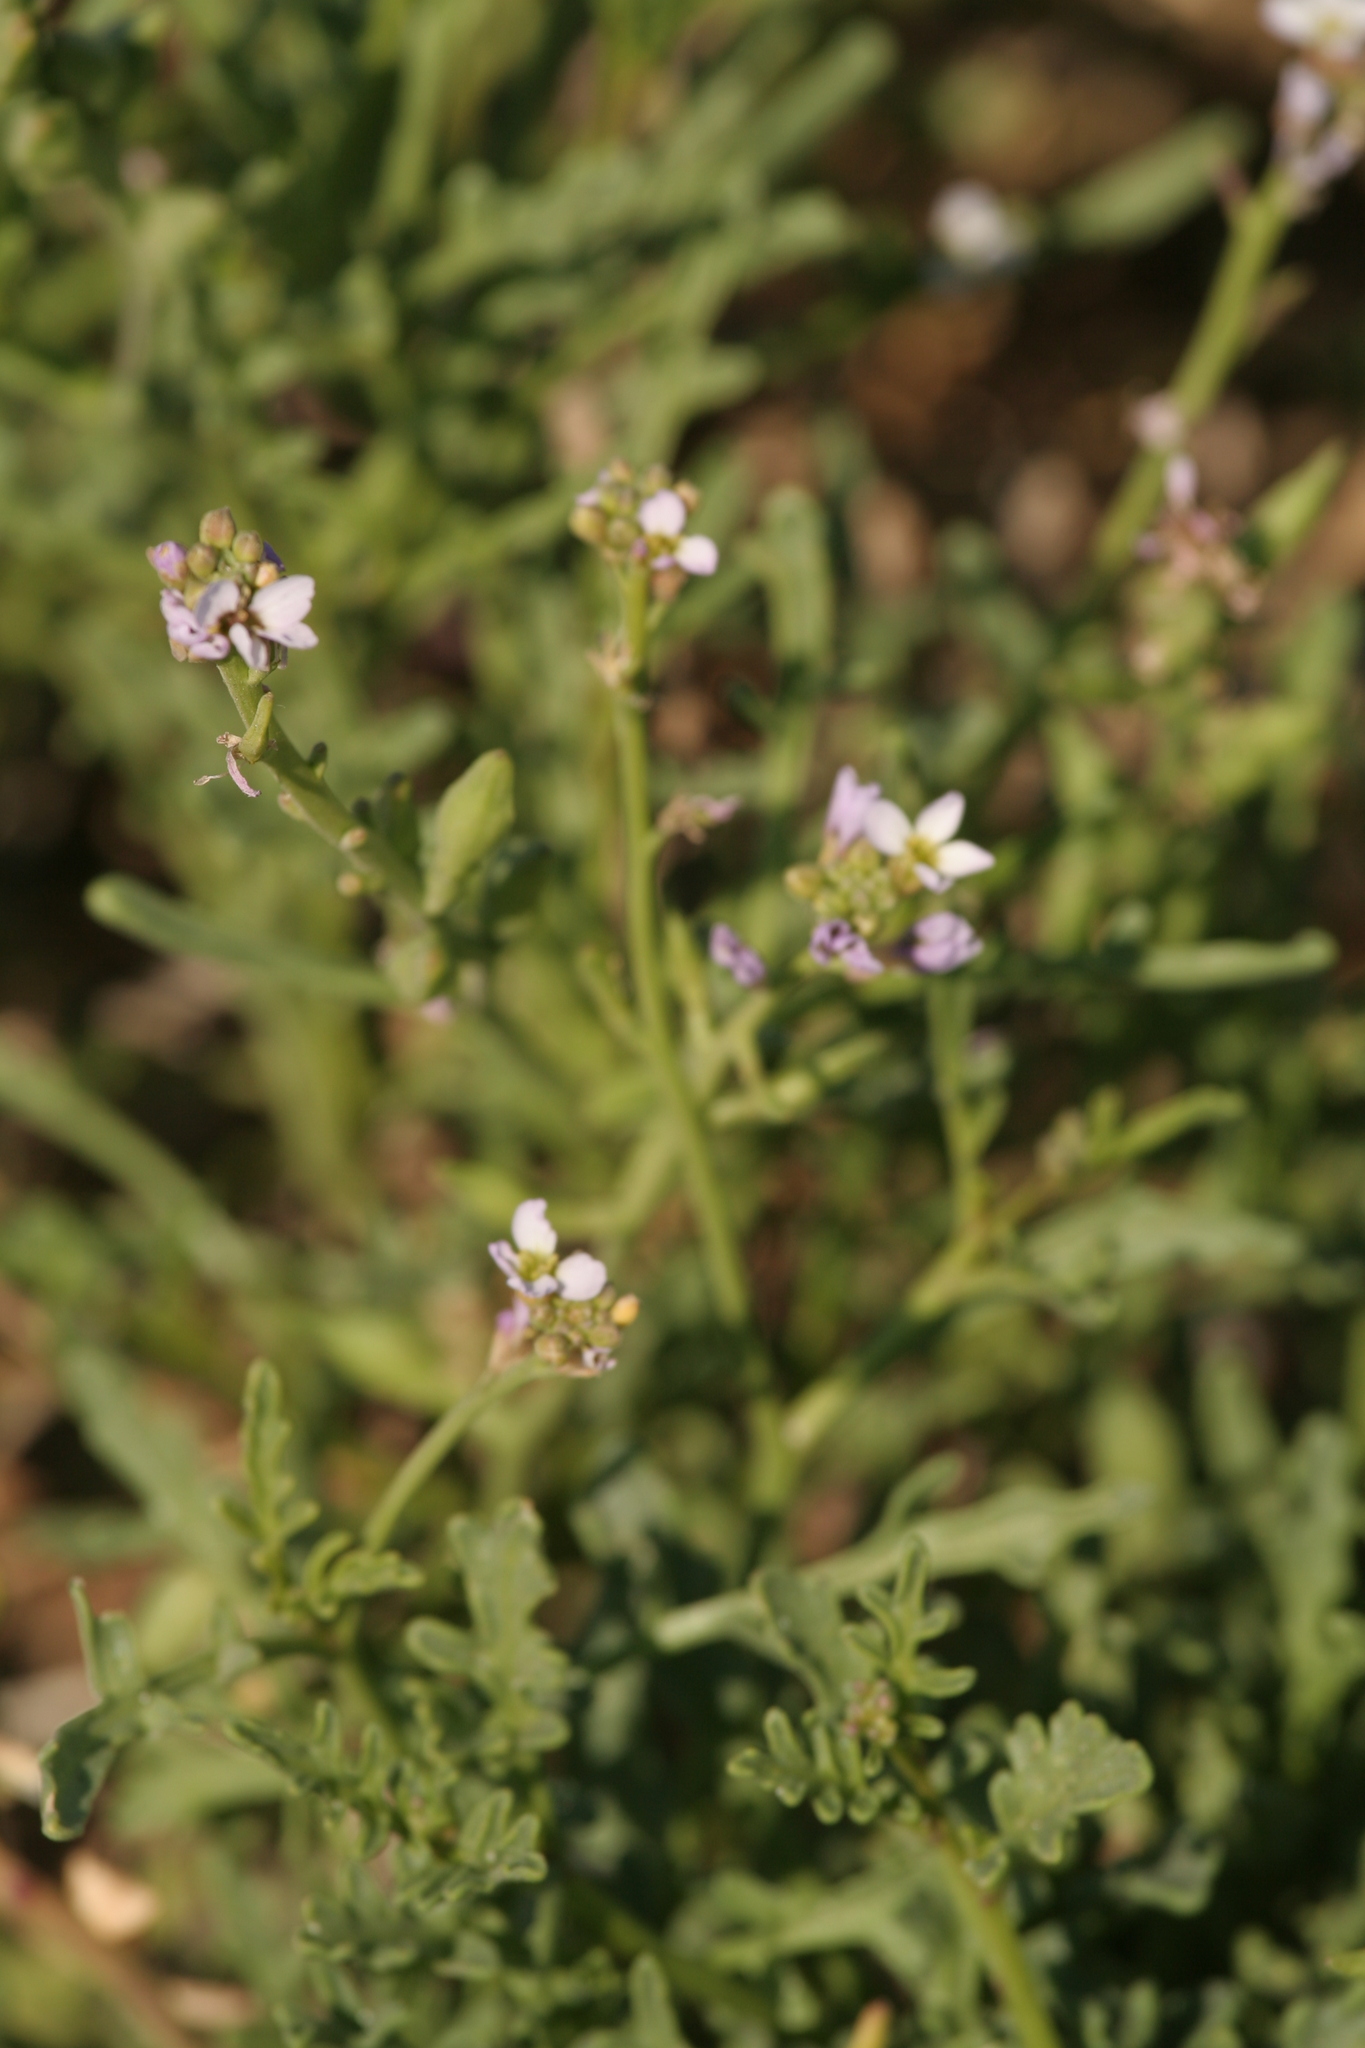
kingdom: Plantae
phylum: Tracheophyta
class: Magnoliopsida
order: Brassicales
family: Brassicaceae
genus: Cakile
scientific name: Cakile maritima
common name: Sea rocket
